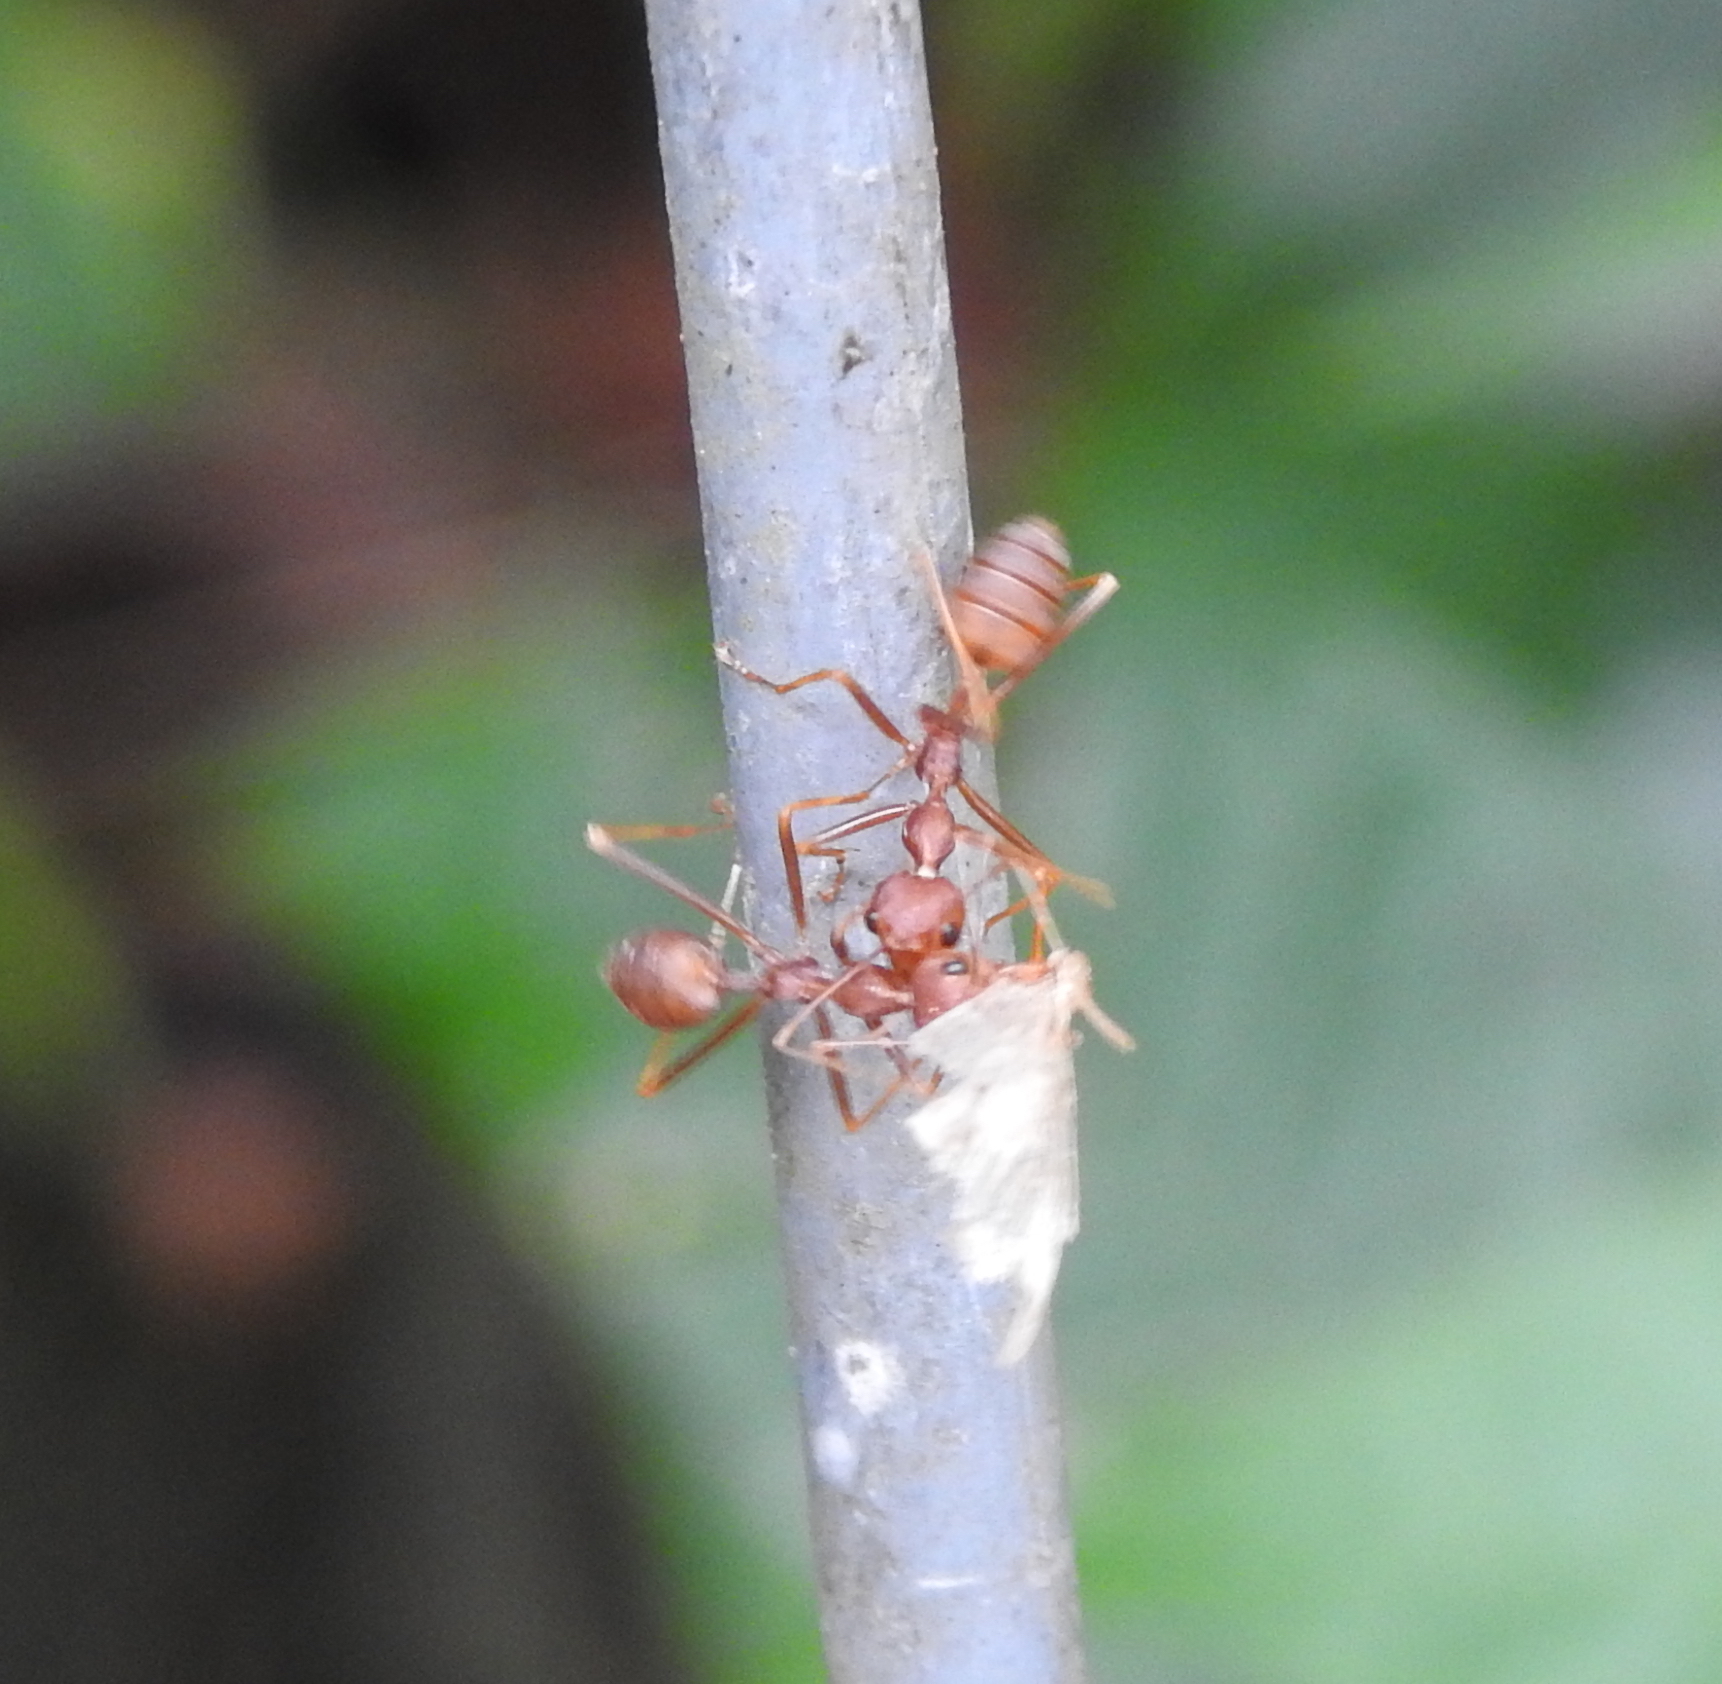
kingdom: Animalia
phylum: Arthropoda
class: Insecta
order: Hymenoptera
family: Formicidae
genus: Oecophylla
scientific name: Oecophylla smaragdina
